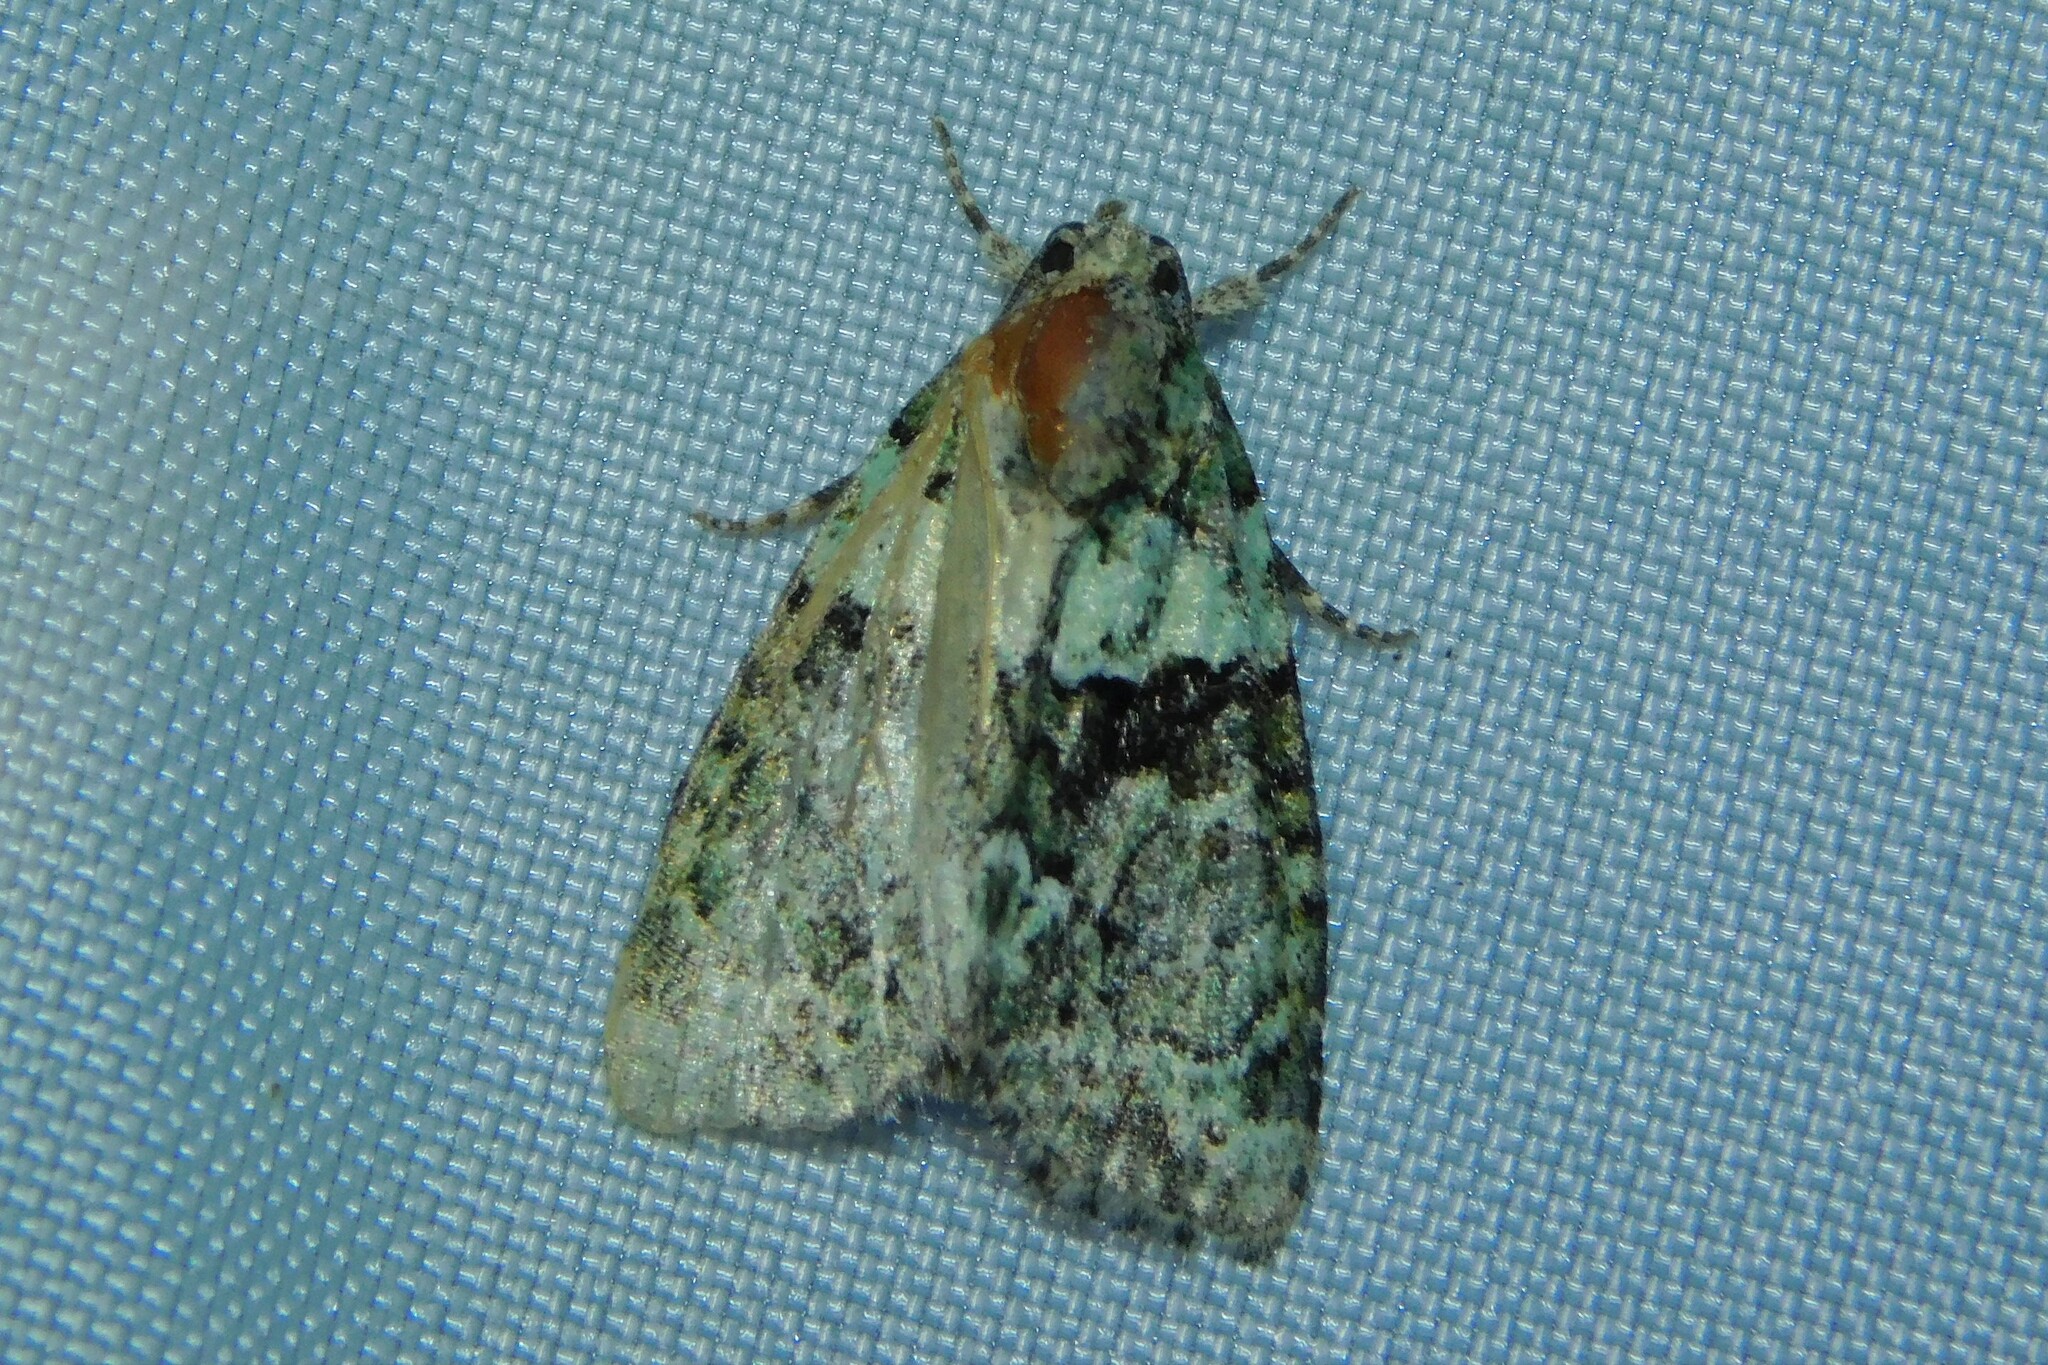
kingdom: Animalia
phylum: Arthropoda
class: Insecta
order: Lepidoptera
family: Noctuidae
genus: Cryphia
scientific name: Cryphia algae
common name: Tree-lichen beauty
